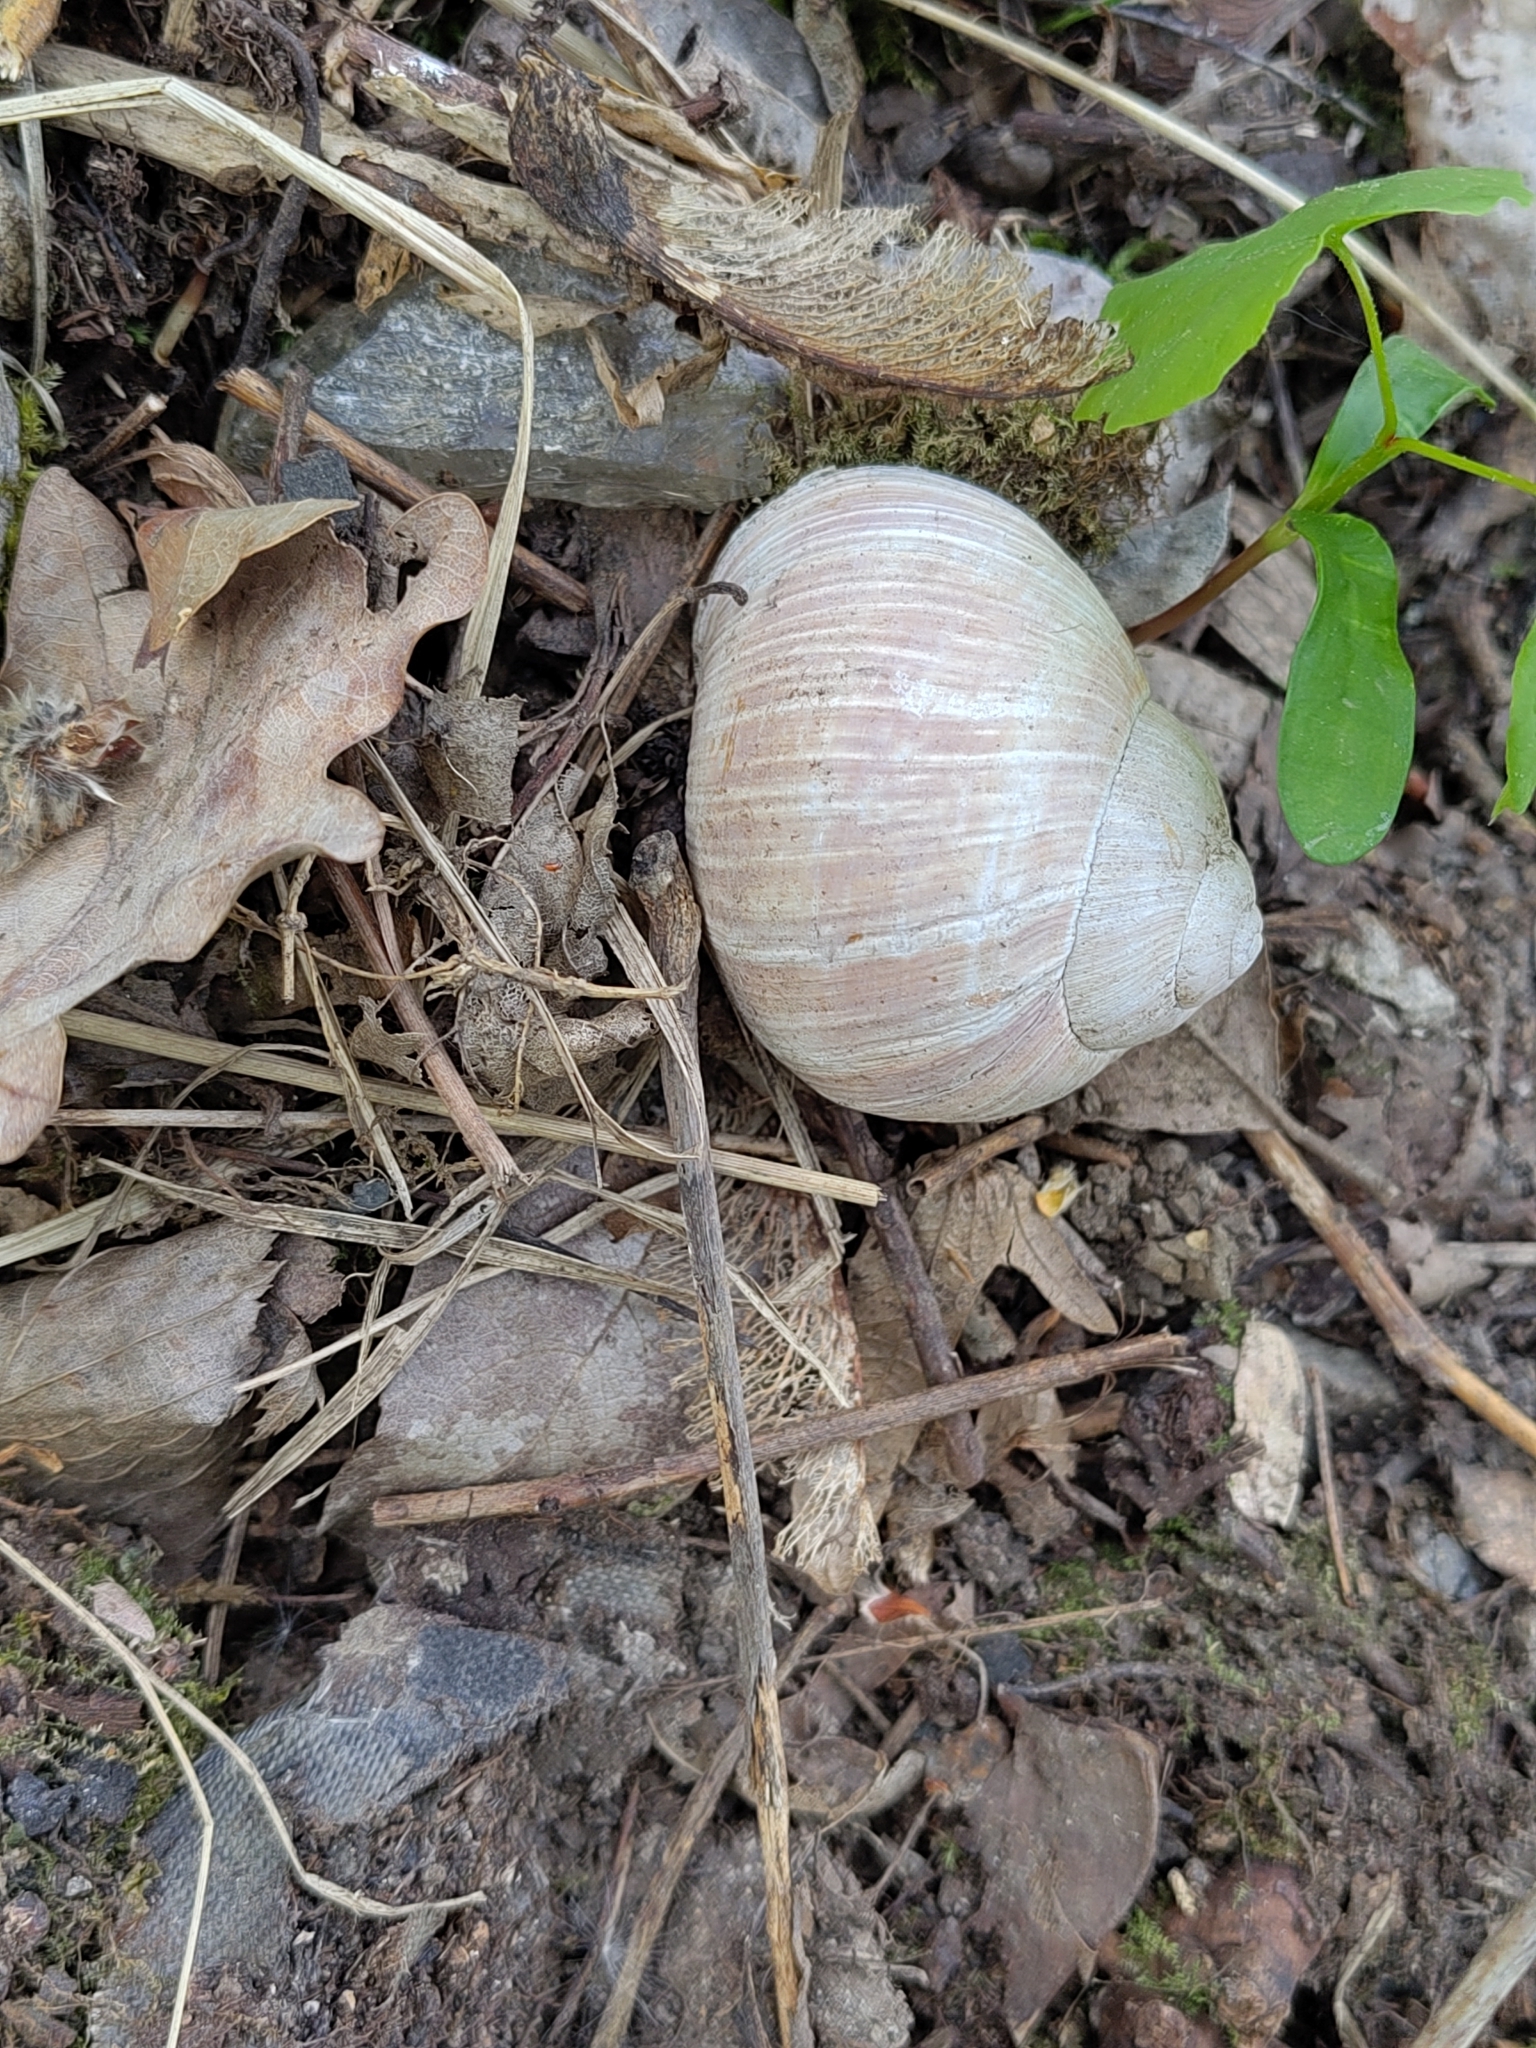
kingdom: Animalia
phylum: Mollusca
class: Gastropoda
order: Stylommatophora
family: Helicidae
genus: Helix
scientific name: Helix pomatia
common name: Roman snail
